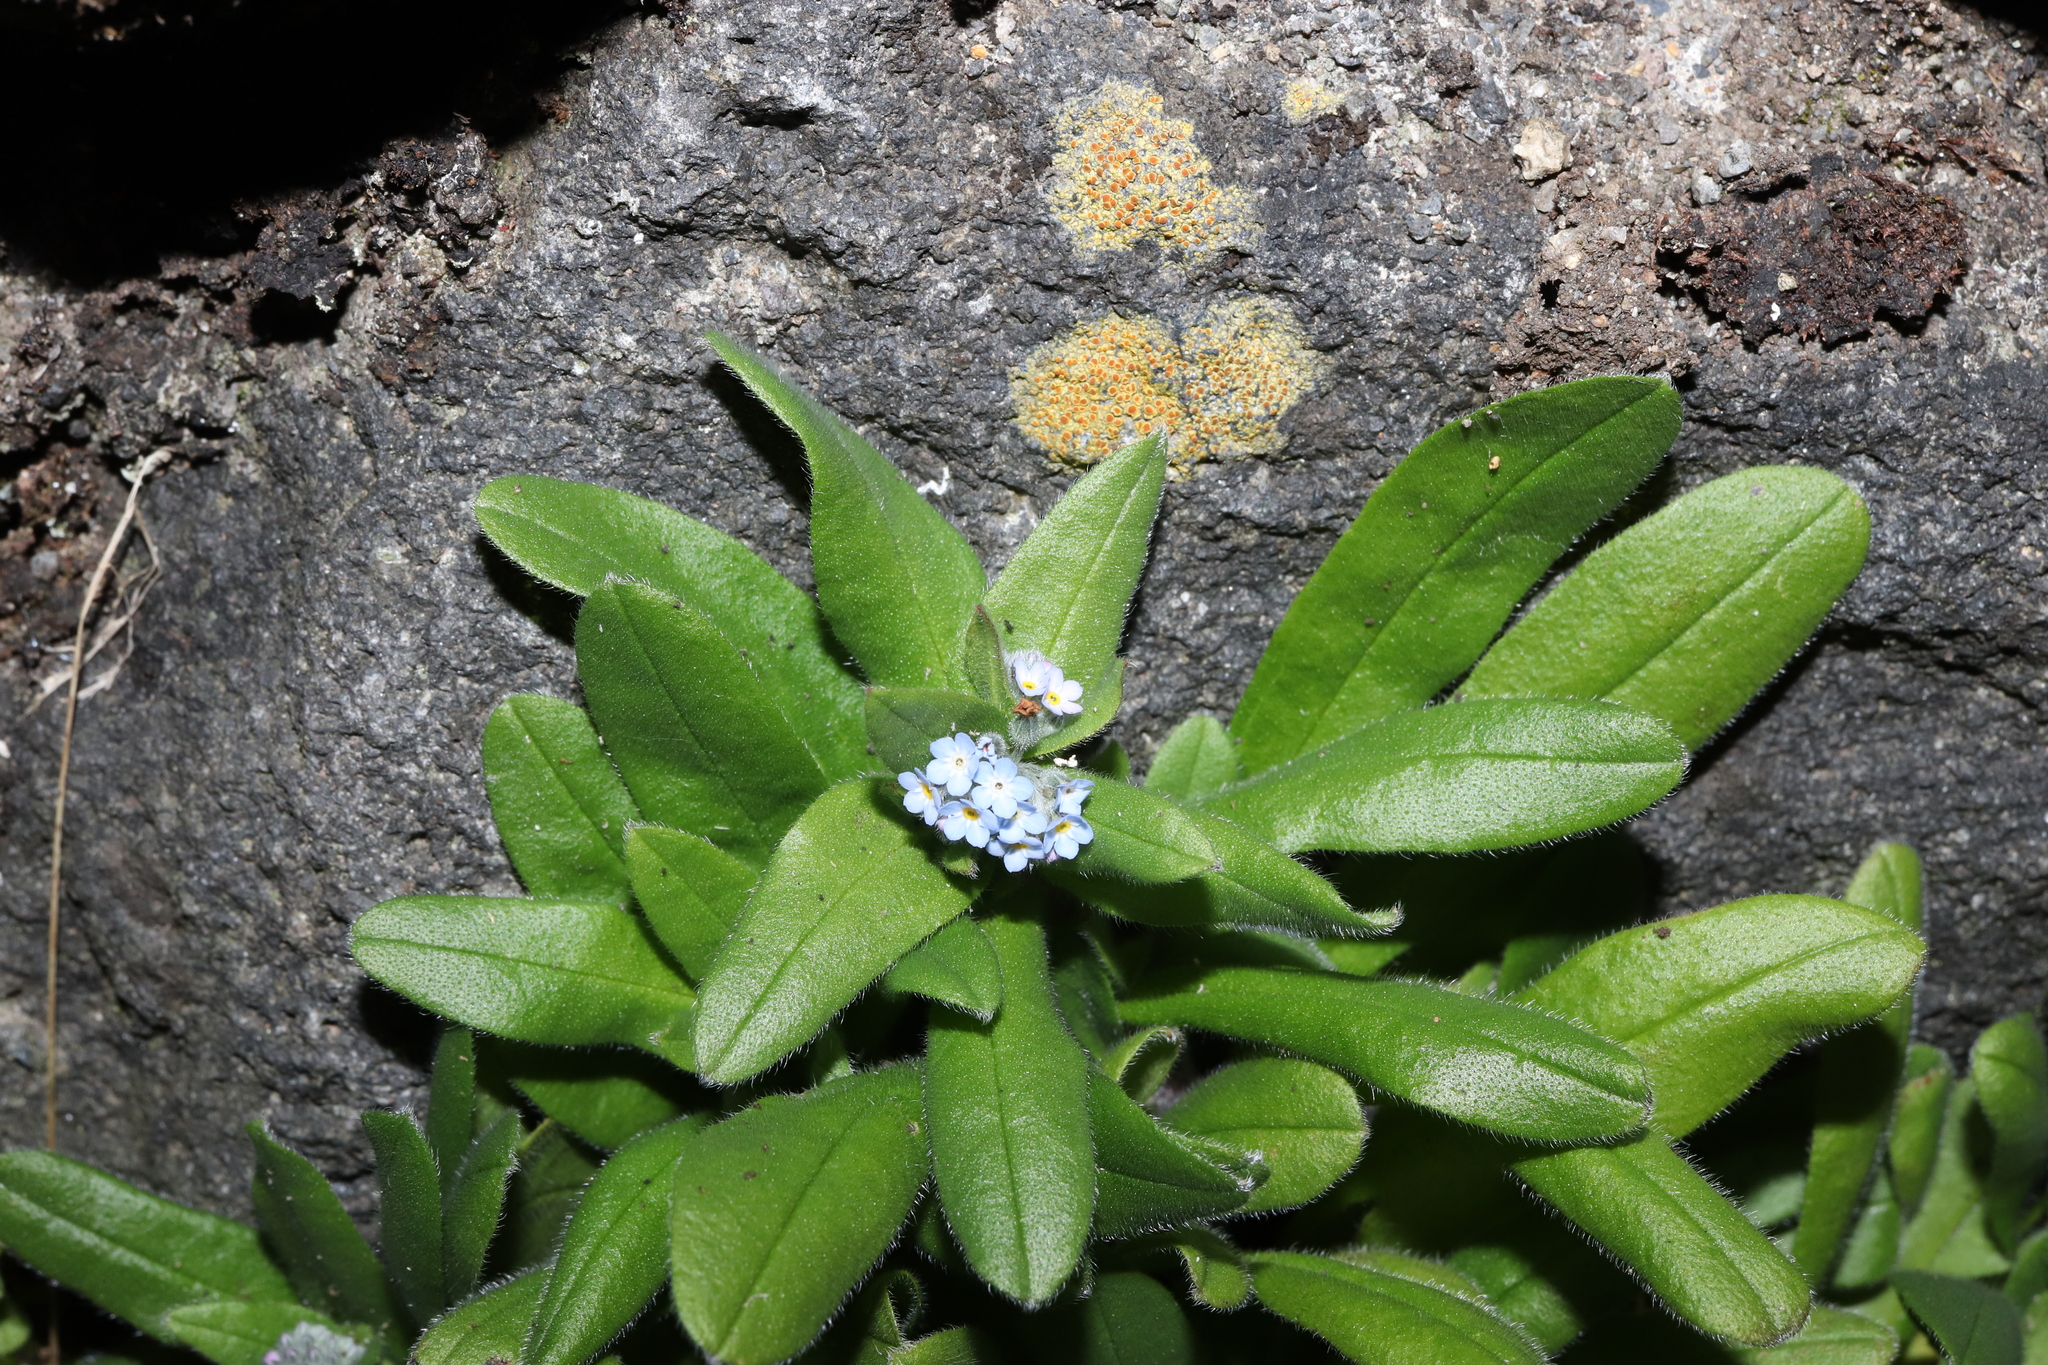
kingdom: Plantae
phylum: Tracheophyta
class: Magnoliopsida
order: Boraginales
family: Boraginaceae
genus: Trigonotis
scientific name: Trigonotis brevipes
